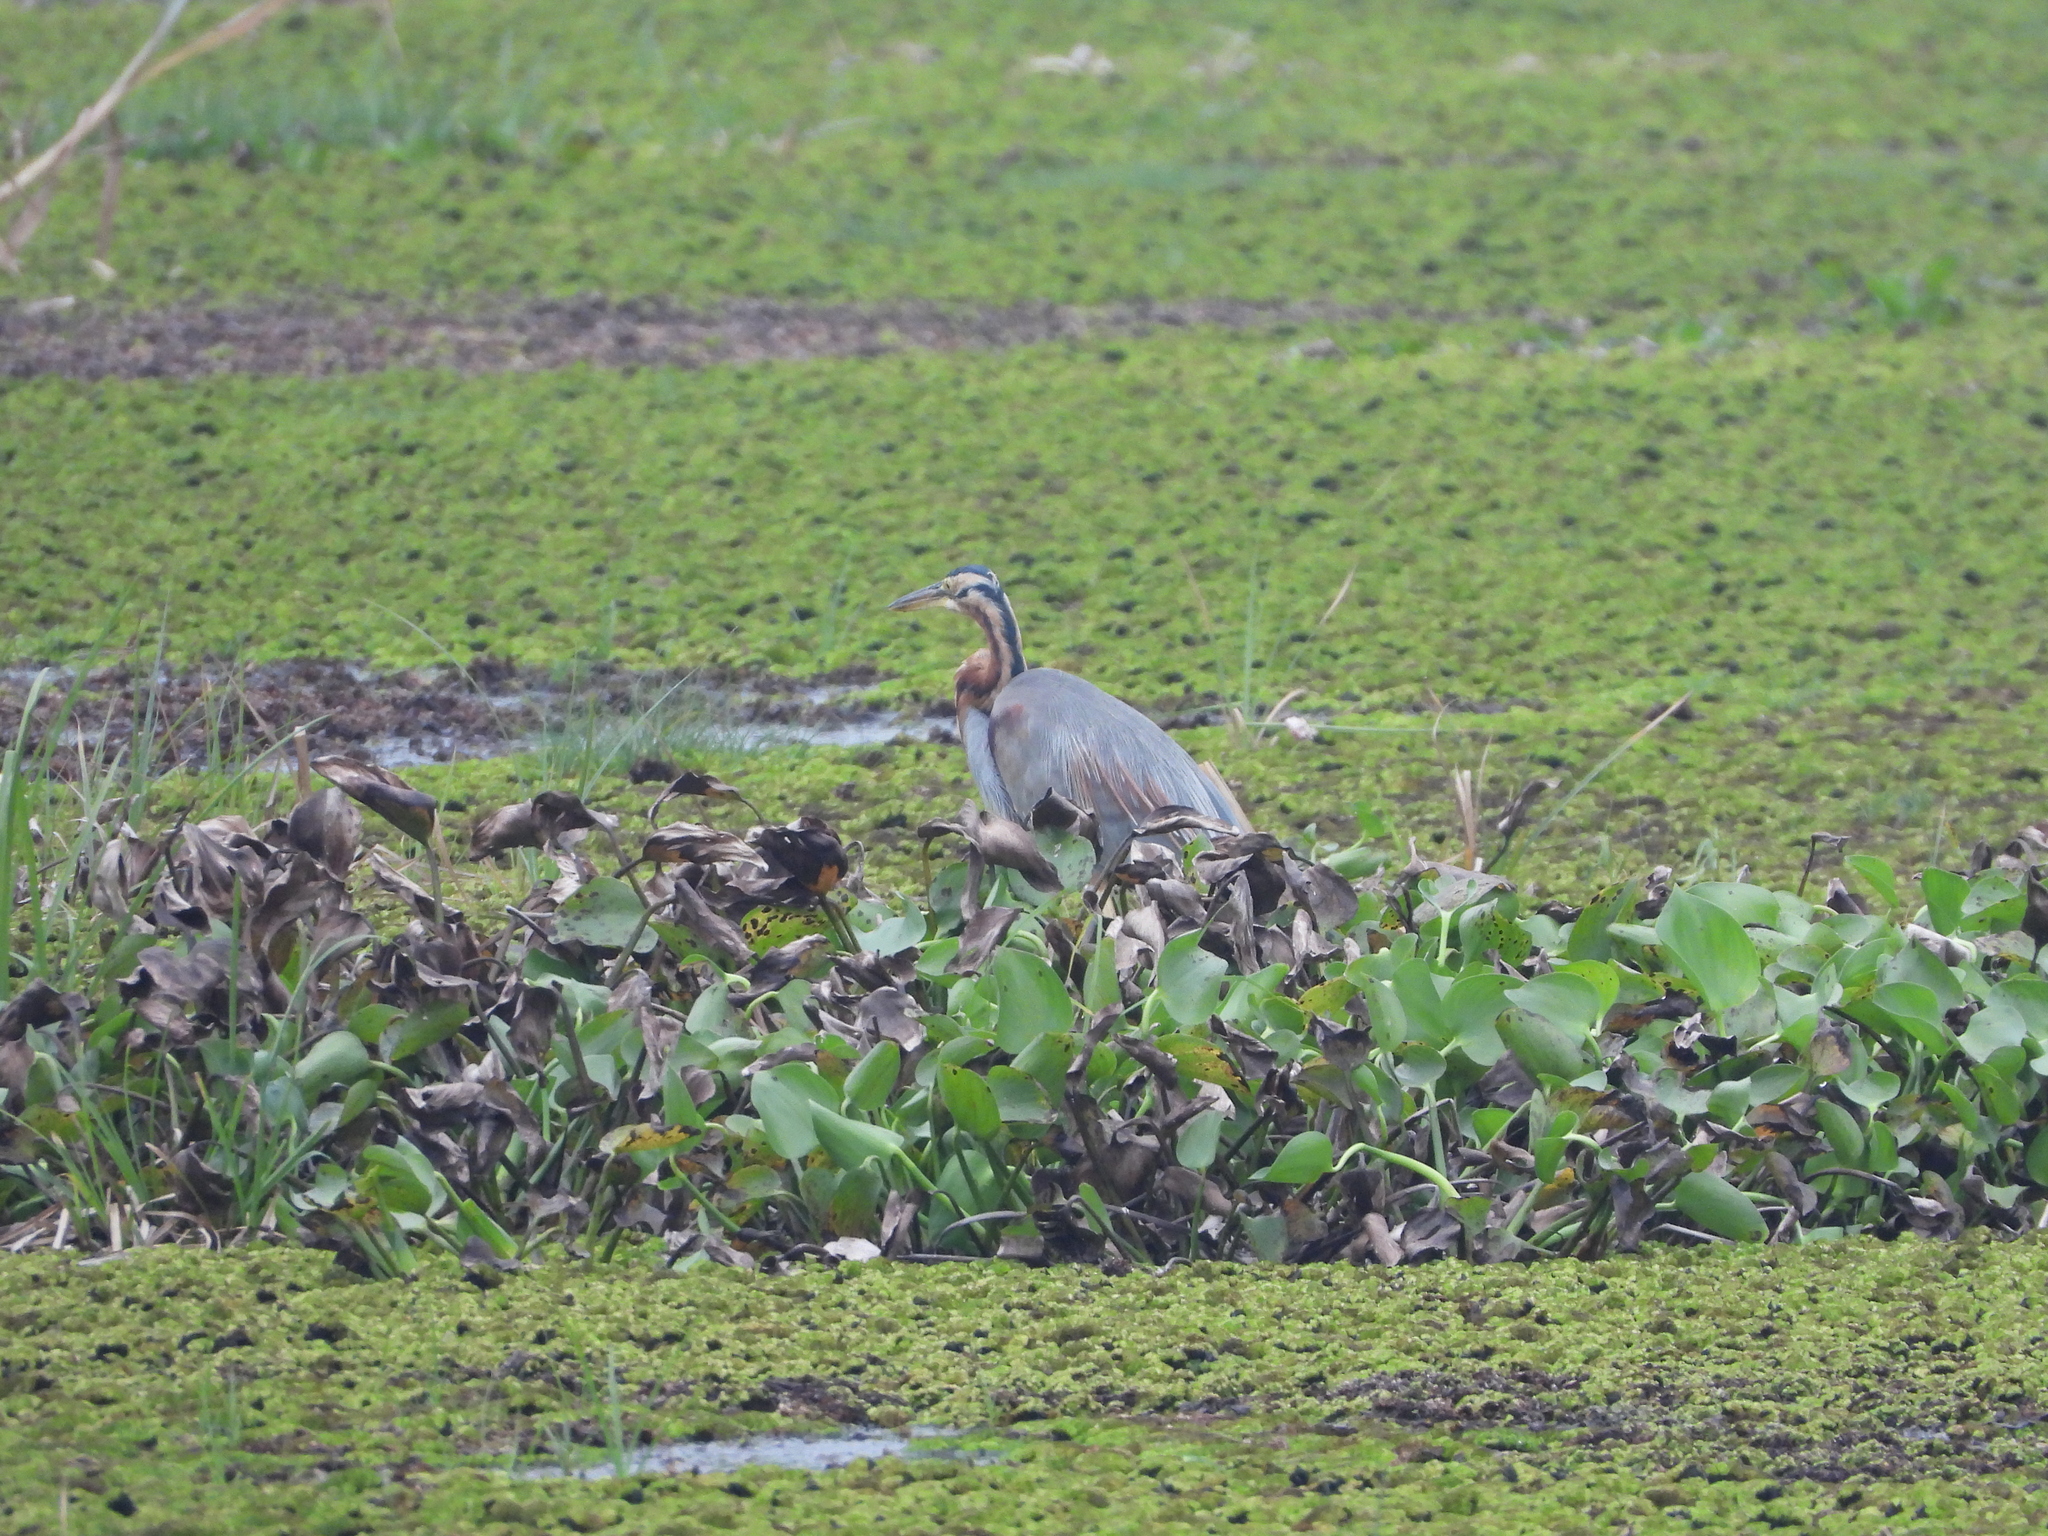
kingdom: Animalia
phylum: Chordata
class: Aves
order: Pelecaniformes
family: Ardeidae
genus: Ardea
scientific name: Ardea purpurea
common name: Purple heron
